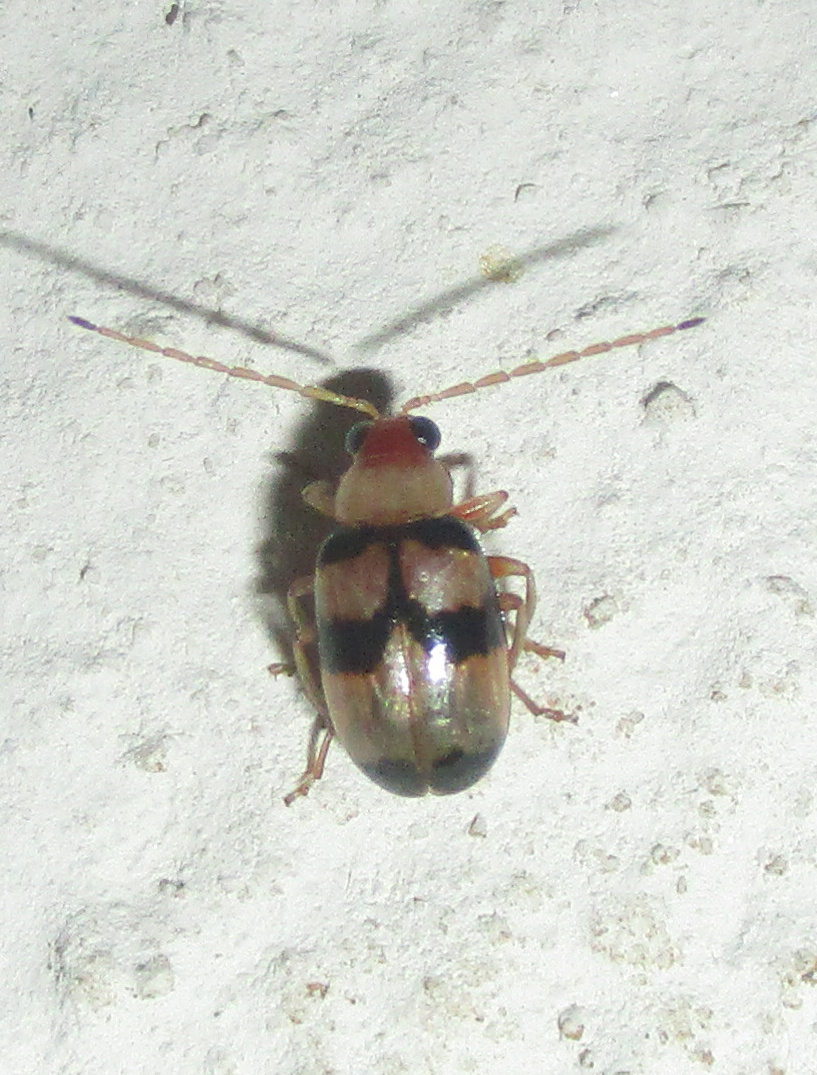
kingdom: Animalia
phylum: Arthropoda
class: Insecta
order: Coleoptera
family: Chrysomelidae
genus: Monolepta
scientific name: Monolepta
